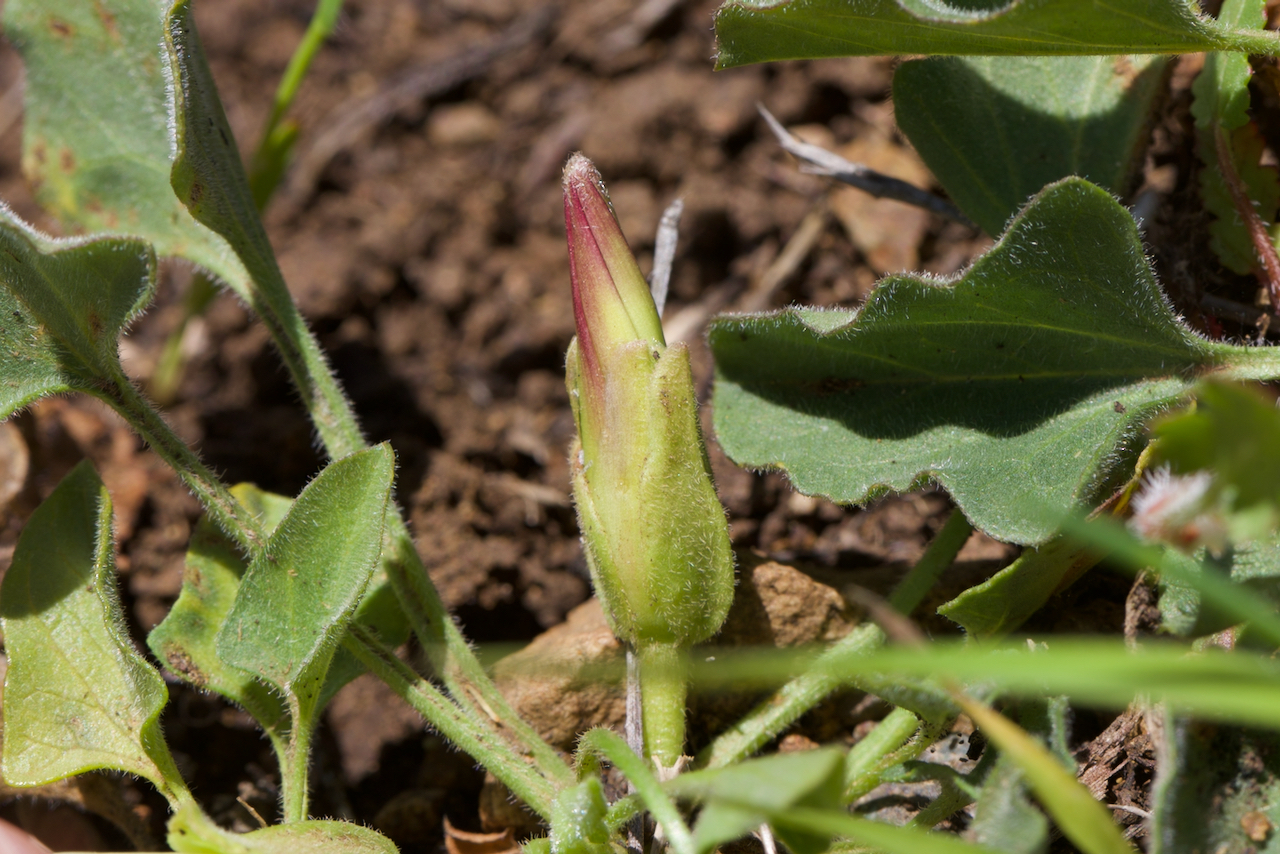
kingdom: Plantae
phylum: Tracheophyta
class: Magnoliopsida
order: Solanales
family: Convolvulaceae
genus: Calystegia
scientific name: Calystegia subacaulis
